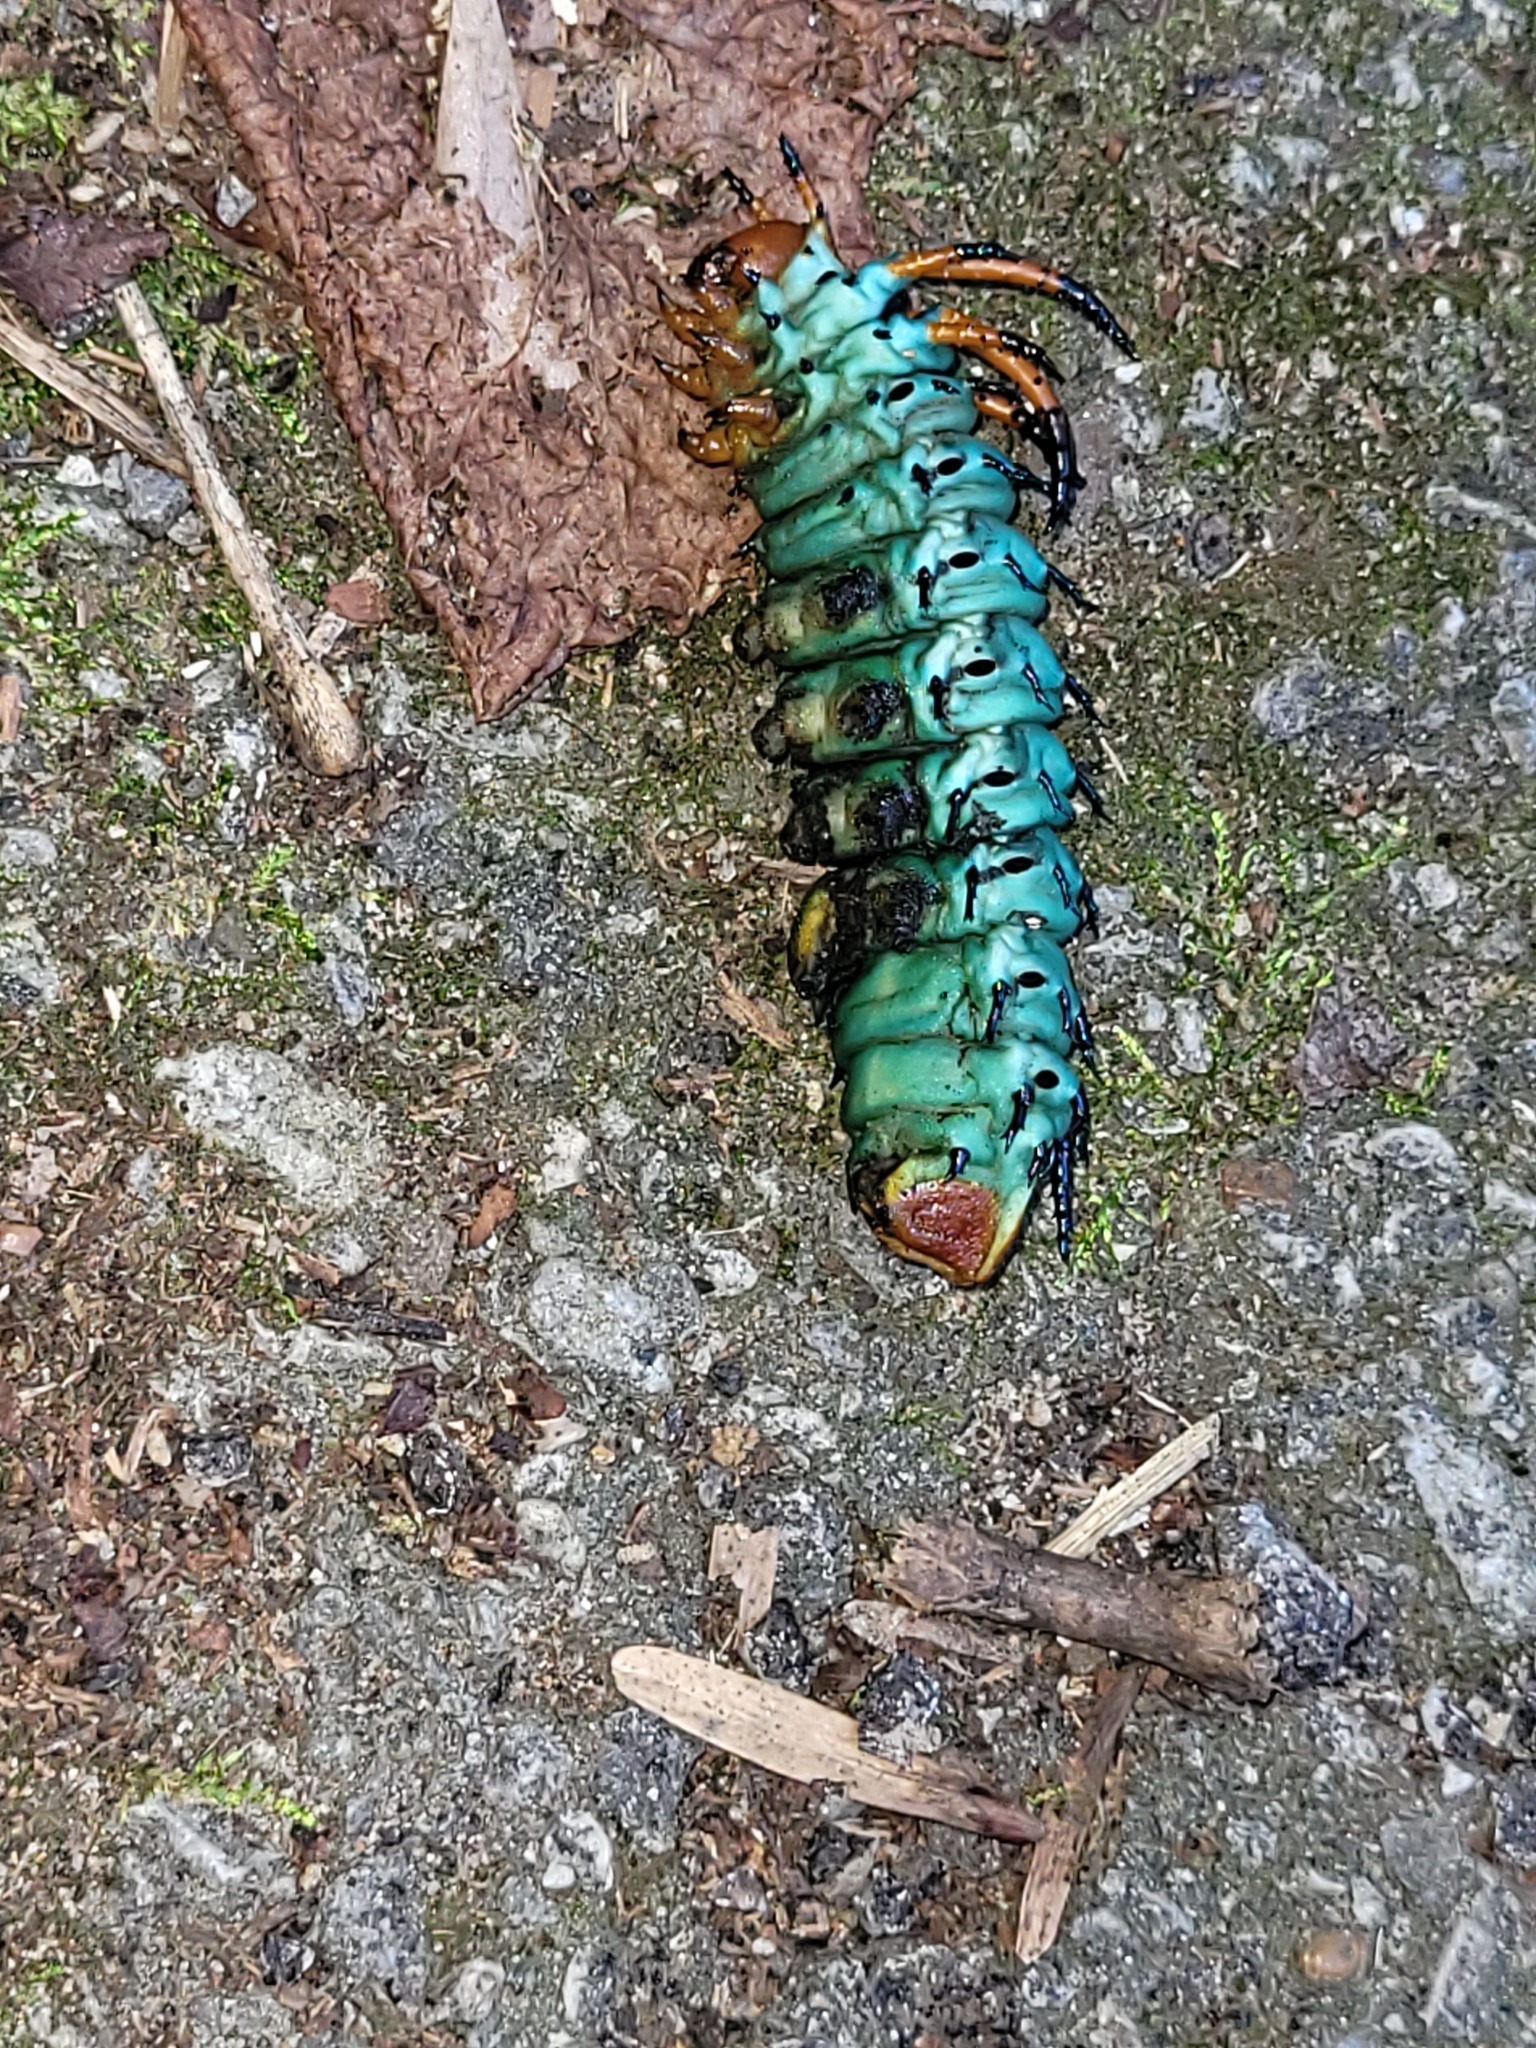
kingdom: Animalia
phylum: Arthropoda
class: Insecta
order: Lepidoptera
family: Saturniidae
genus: Citheronia
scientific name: Citheronia regalis
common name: Hickory horned devil
